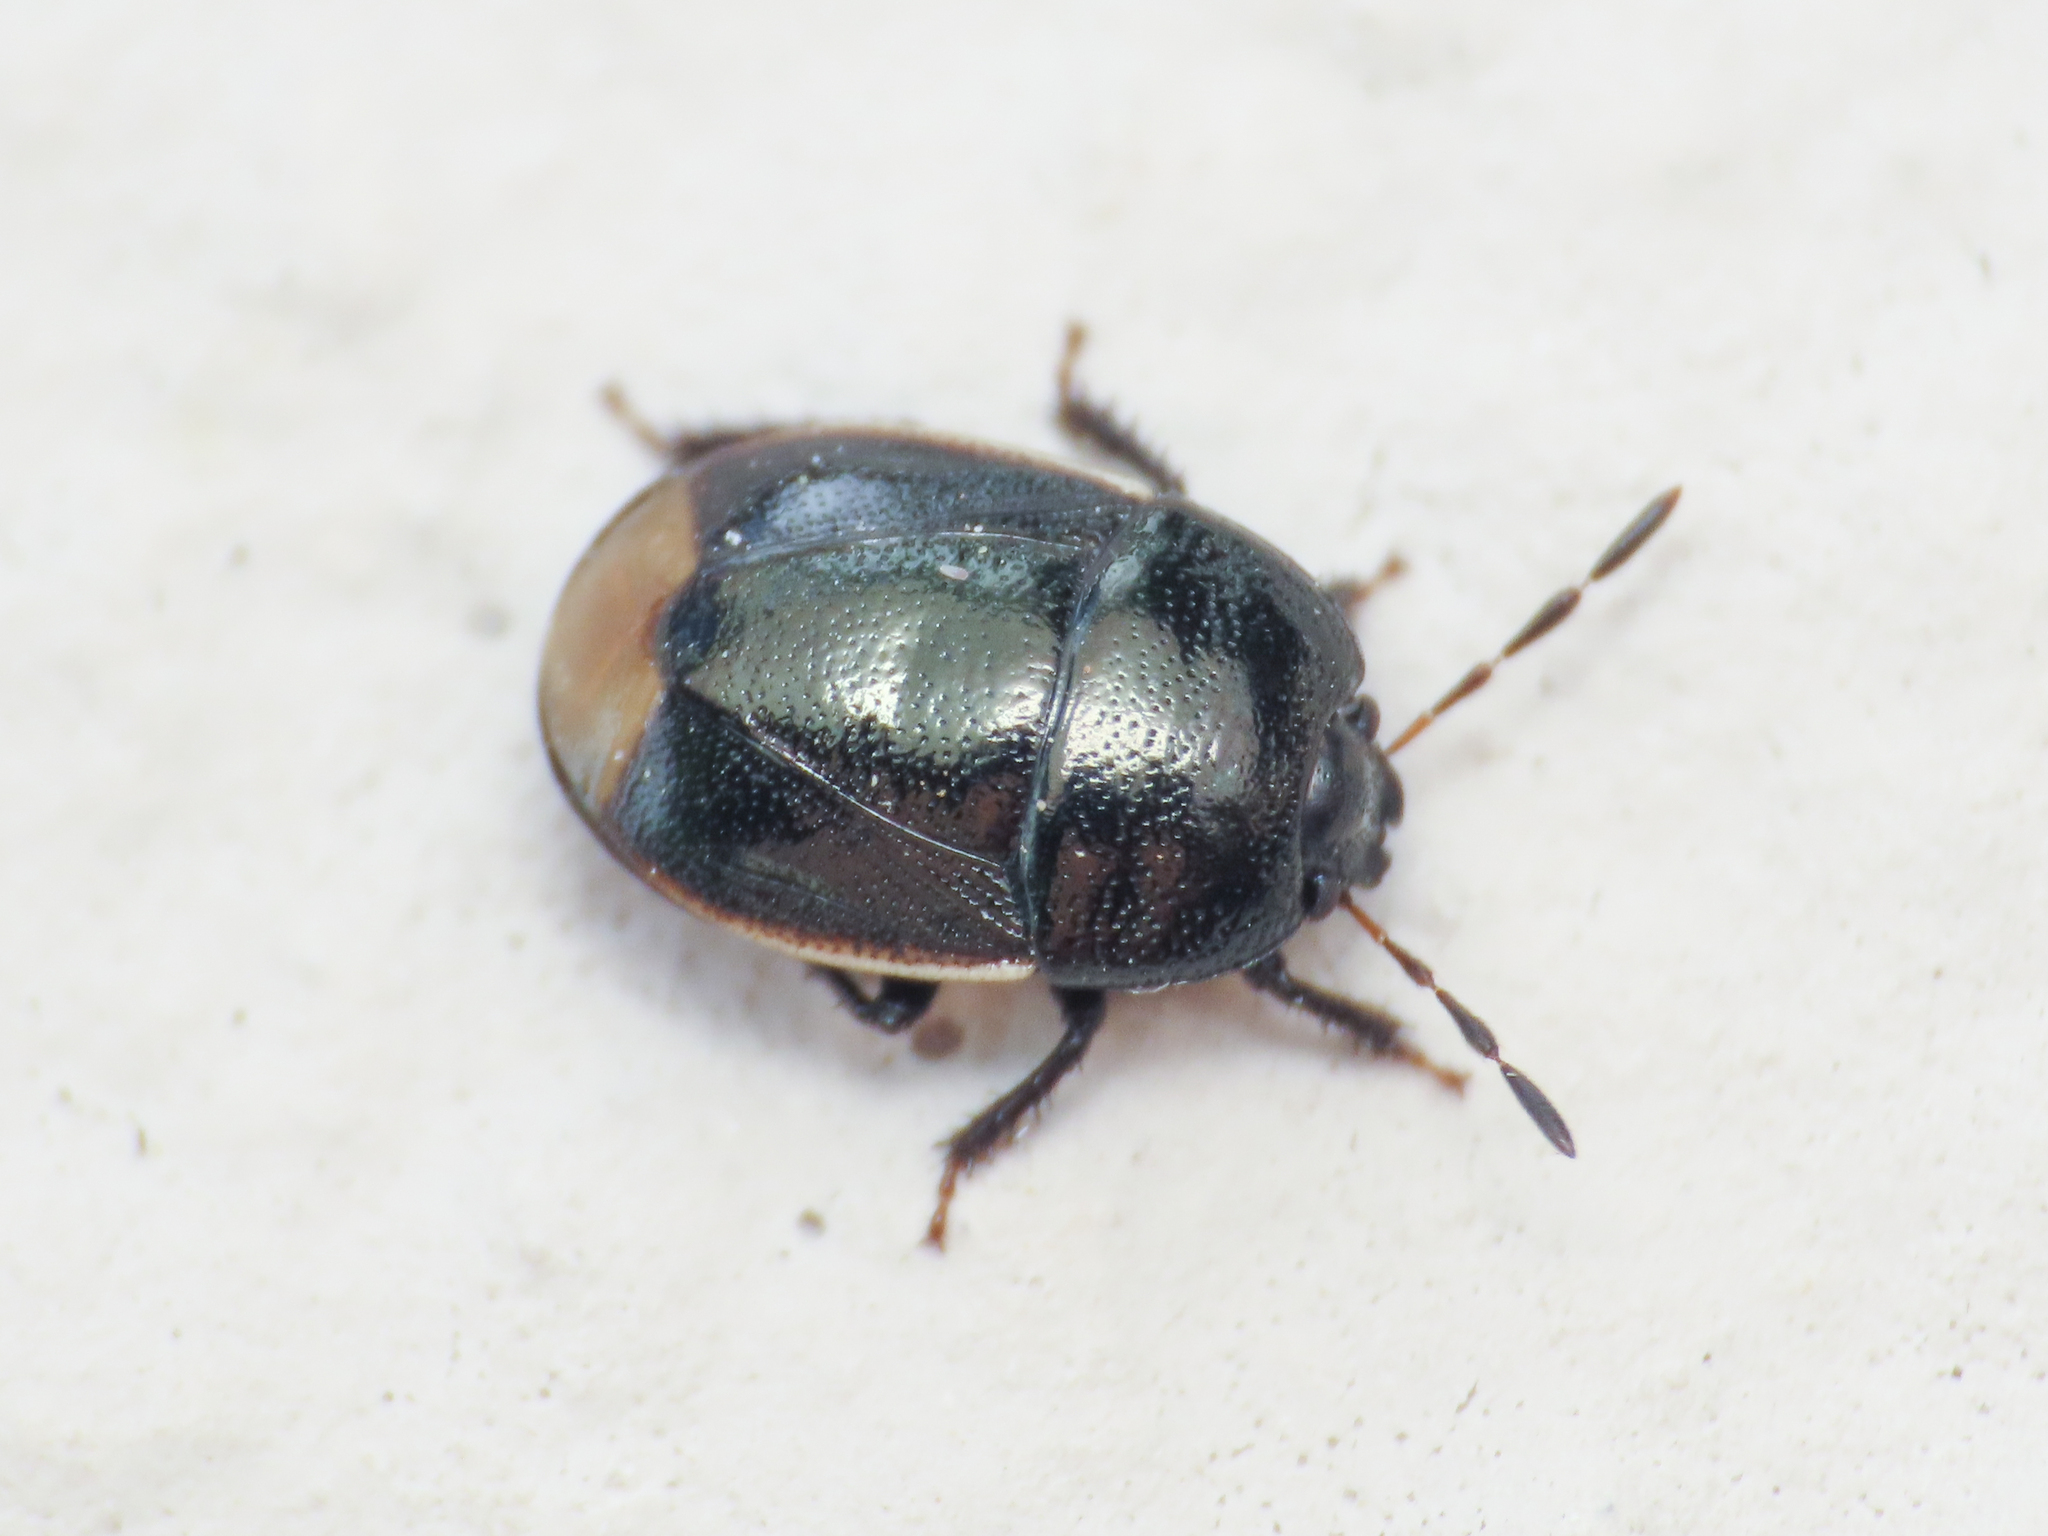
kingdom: Animalia
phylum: Arthropoda
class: Insecta
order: Hemiptera
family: Cydnidae
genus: Legnotus
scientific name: Legnotus limbosus
